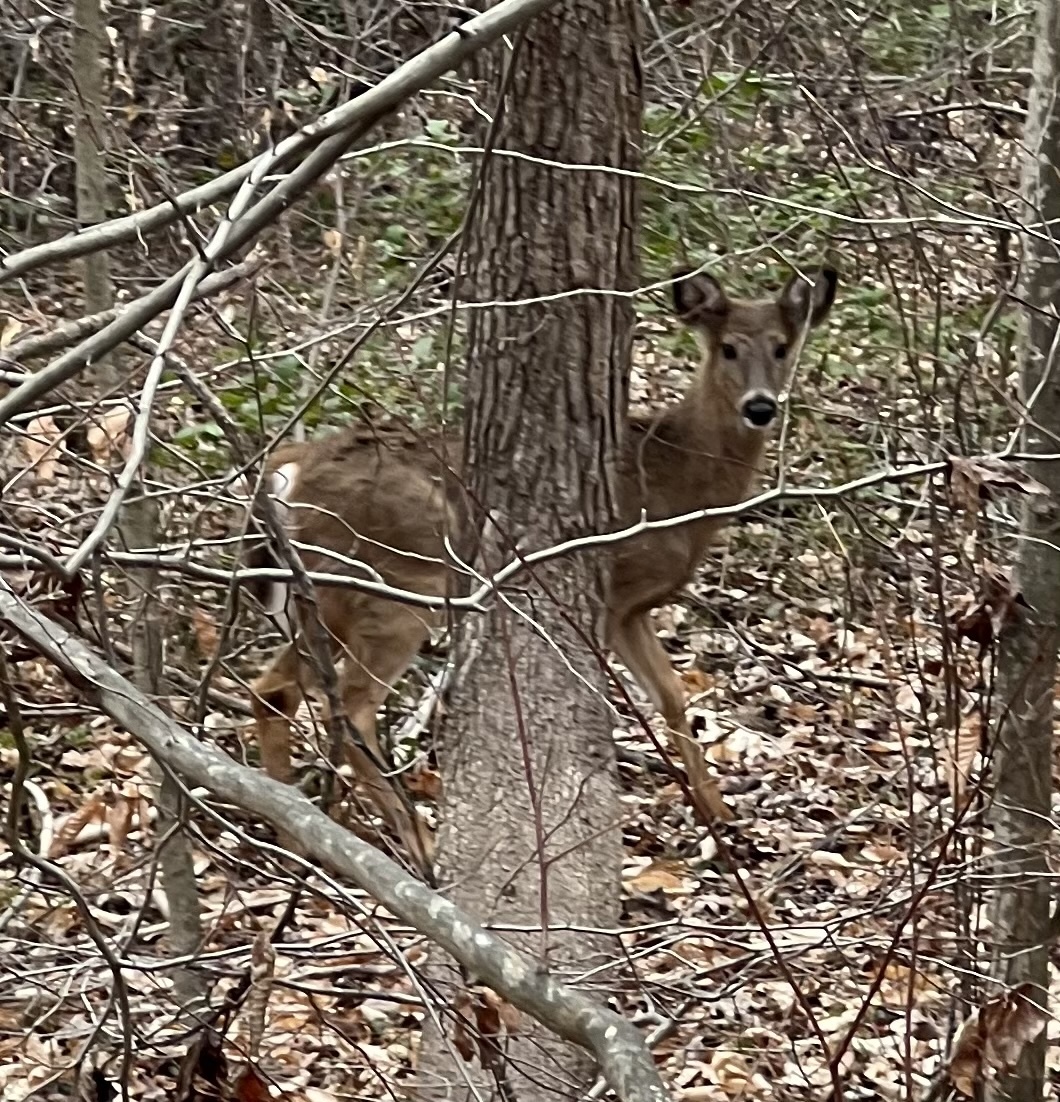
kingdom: Animalia
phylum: Chordata
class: Mammalia
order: Artiodactyla
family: Cervidae
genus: Odocoileus
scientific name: Odocoileus virginianus
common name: White-tailed deer
